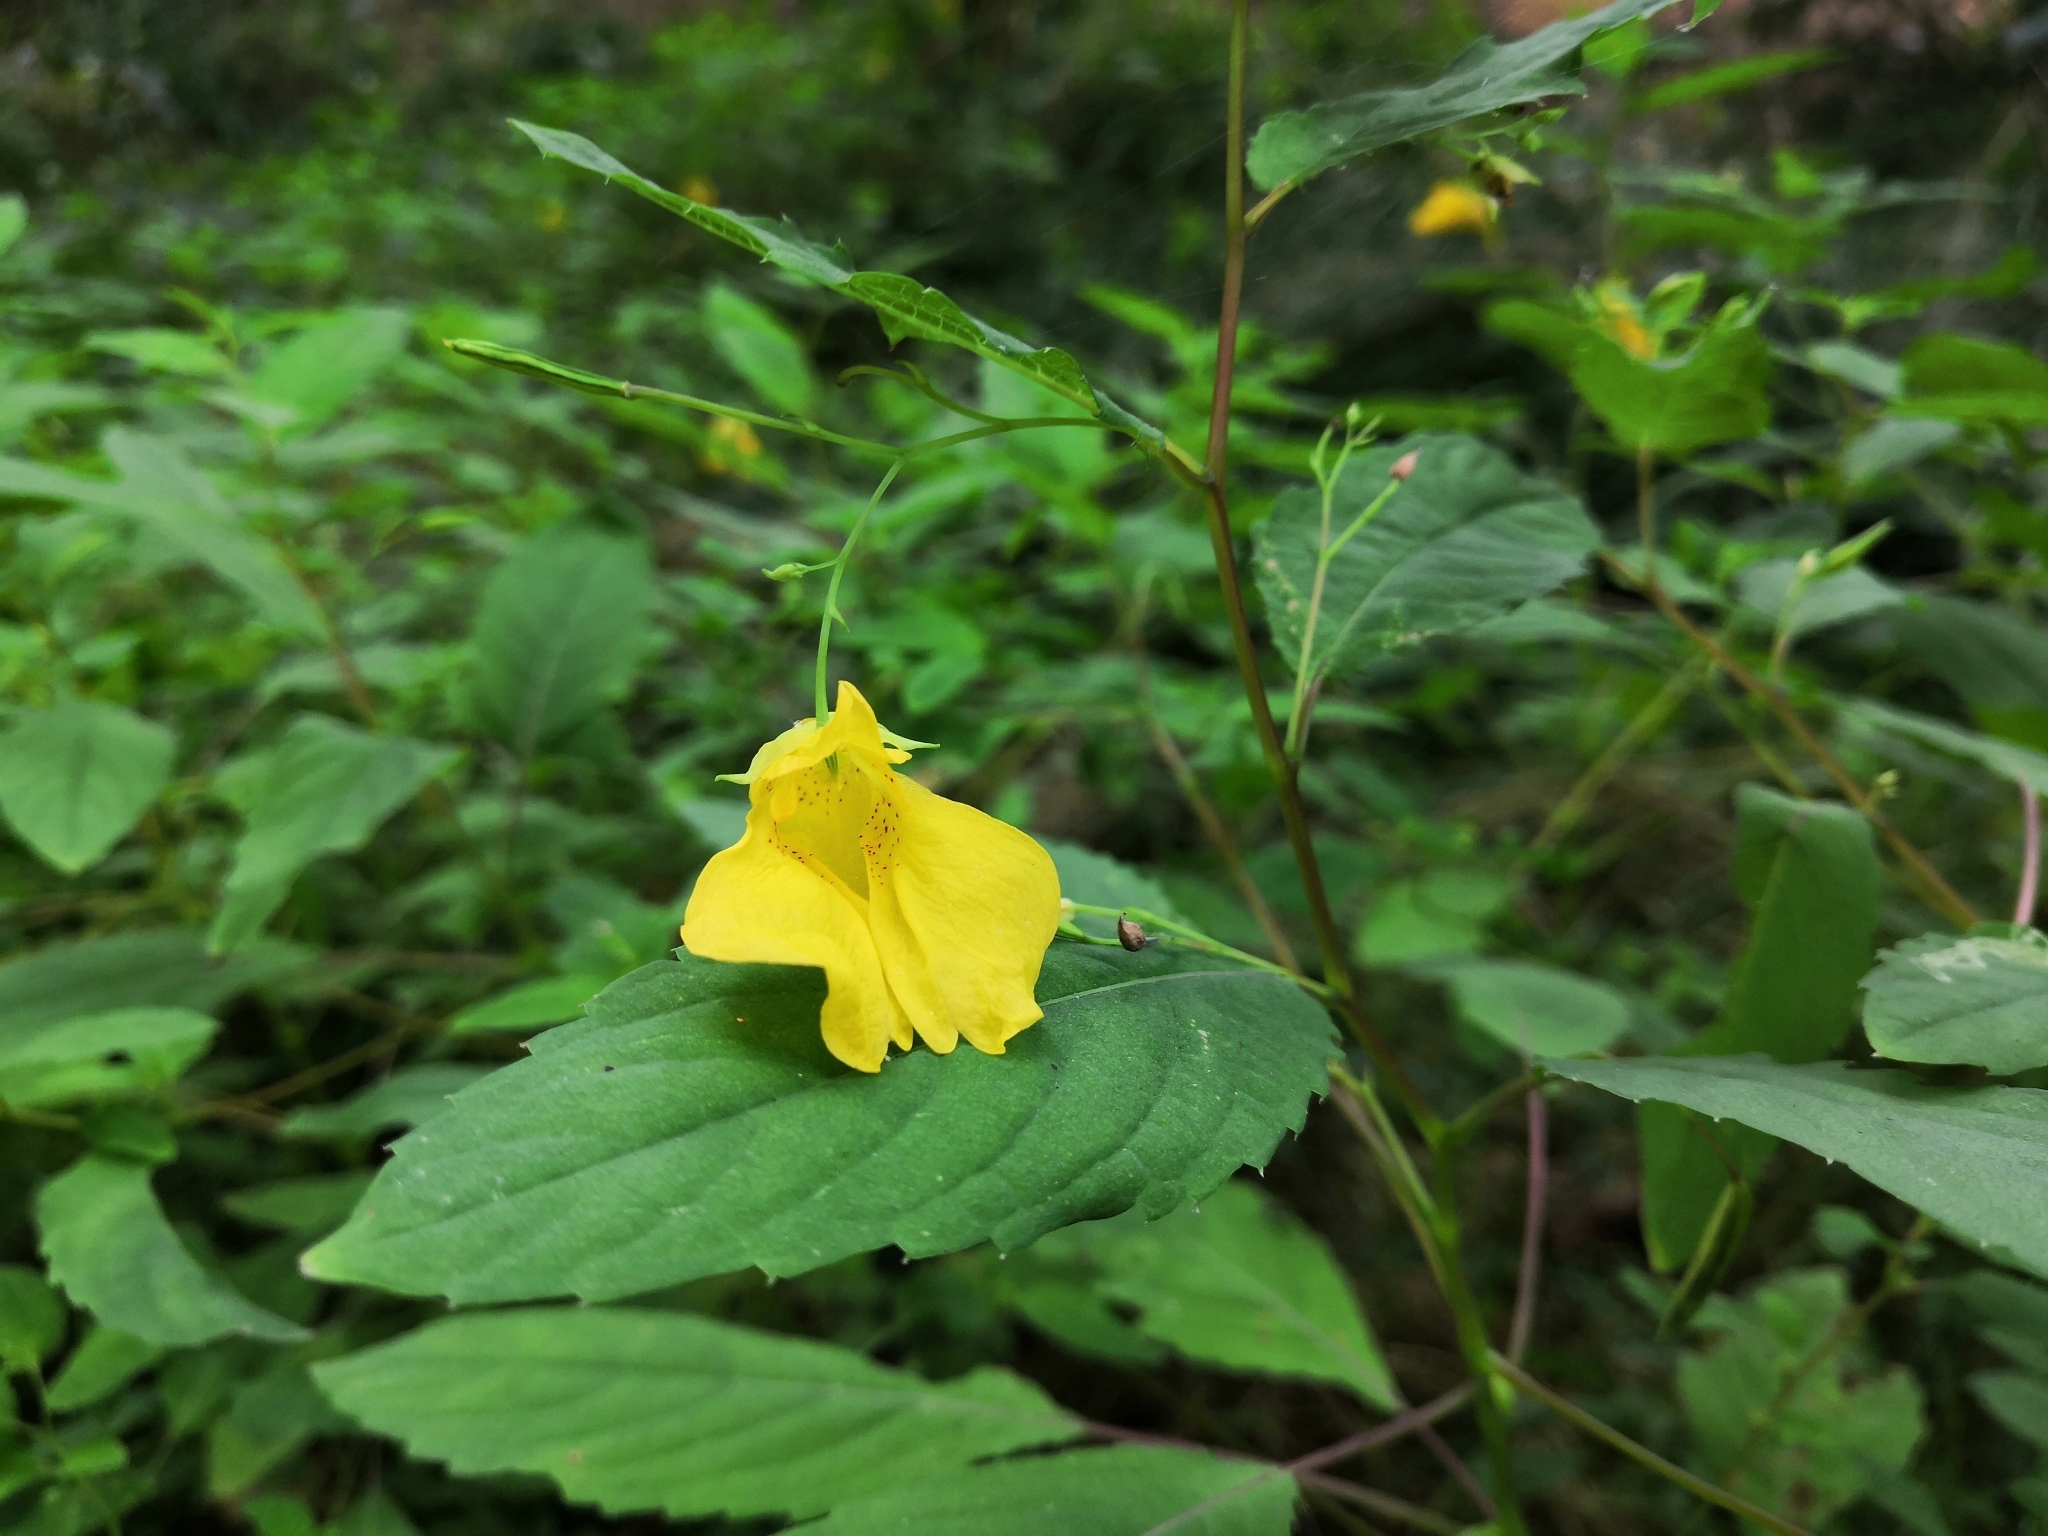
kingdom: Plantae
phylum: Tracheophyta
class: Magnoliopsida
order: Ericales
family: Balsaminaceae
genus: Impatiens
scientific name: Impatiens noli-tangere
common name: Touch-me-not balsam
